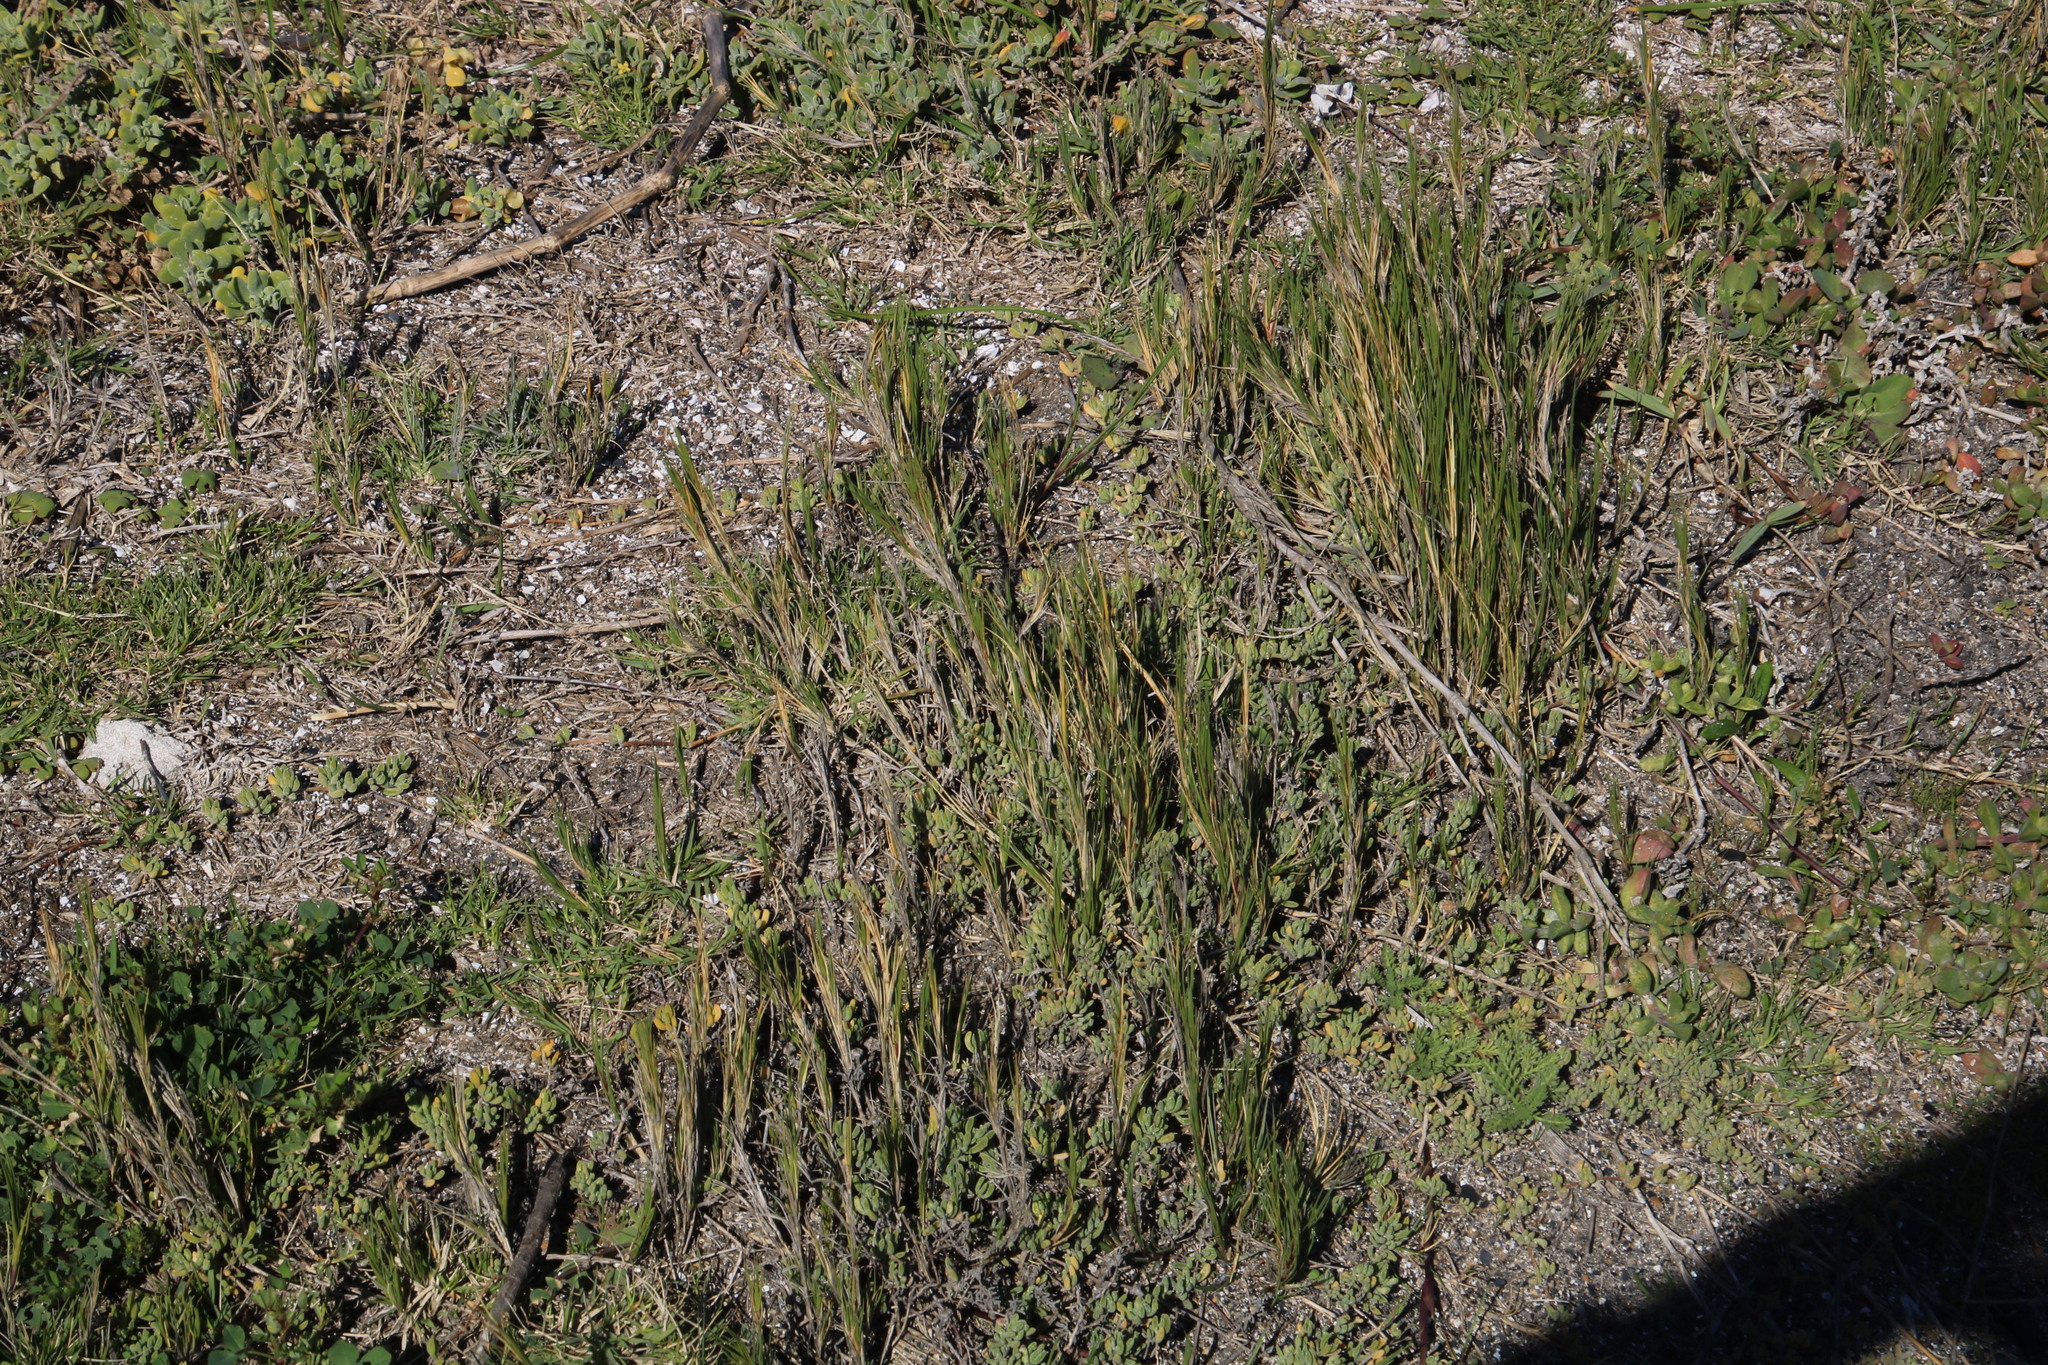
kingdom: Plantae
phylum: Tracheophyta
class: Liliopsida
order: Poales
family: Poaceae
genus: Sporobolus
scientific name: Sporobolus virginicus
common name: Beach dropseed
